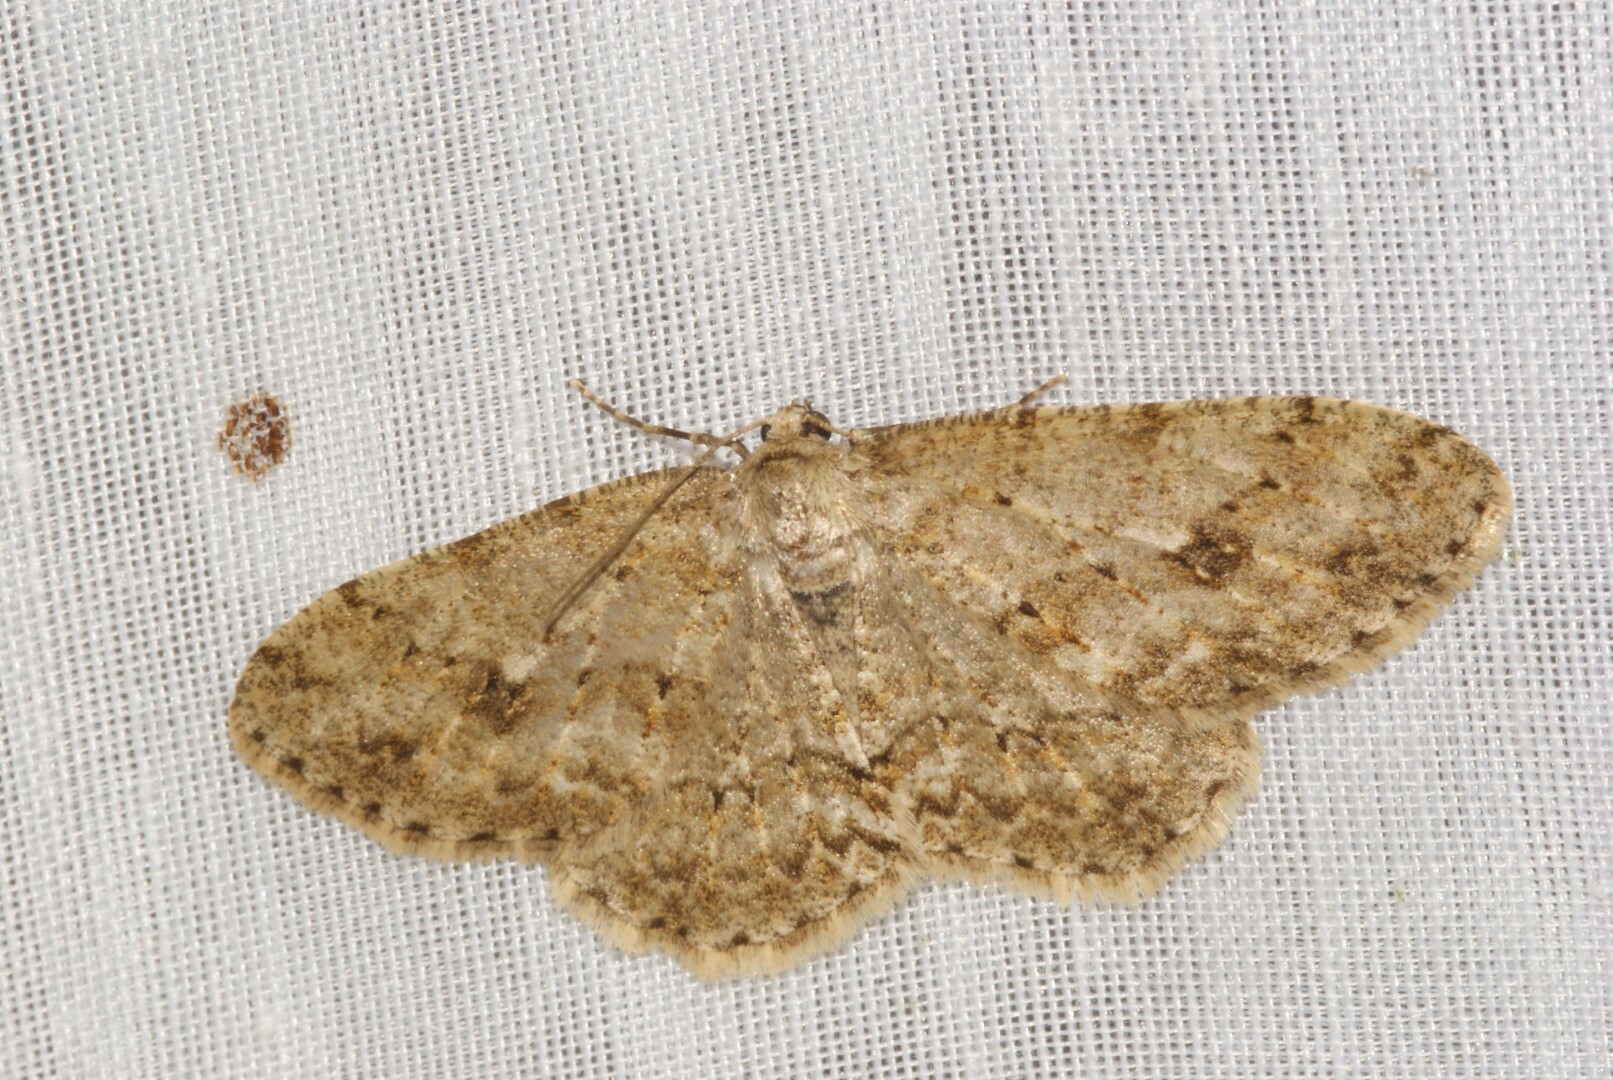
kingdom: Animalia
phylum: Arthropoda
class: Insecta
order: Lepidoptera
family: Geometridae
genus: Ectropis
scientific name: Ectropis crepuscularia
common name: Engrailed
